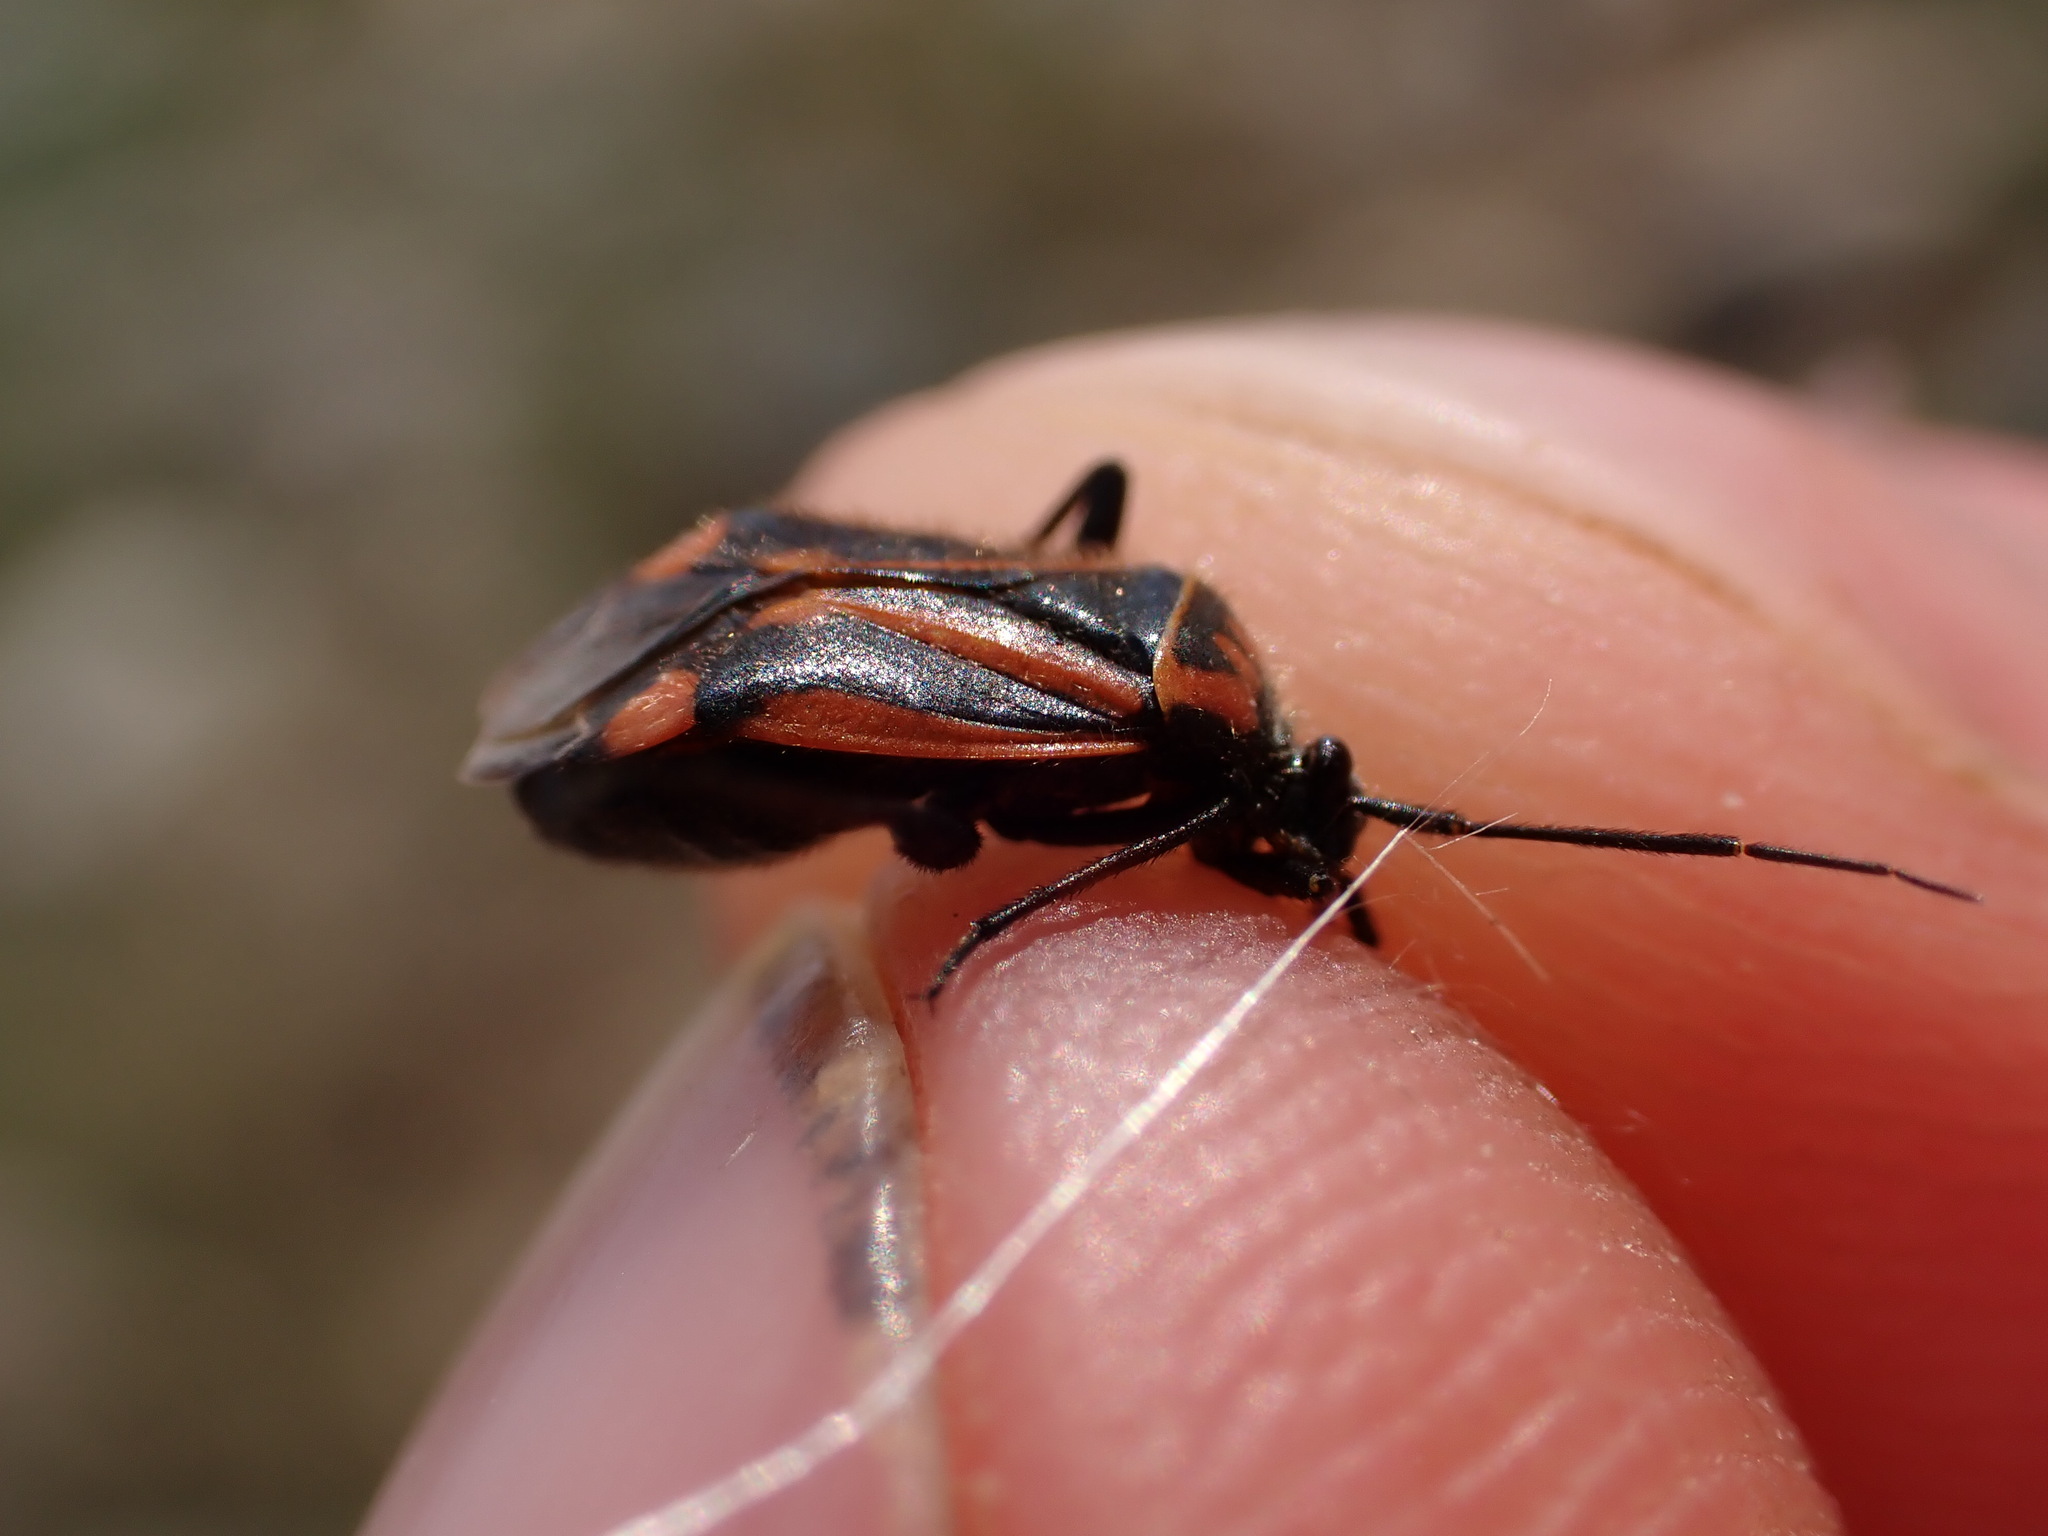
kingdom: Animalia
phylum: Arthropoda
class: Insecta
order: Hemiptera
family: Miridae
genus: Brachycoleus
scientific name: Brachycoleus triangularis
